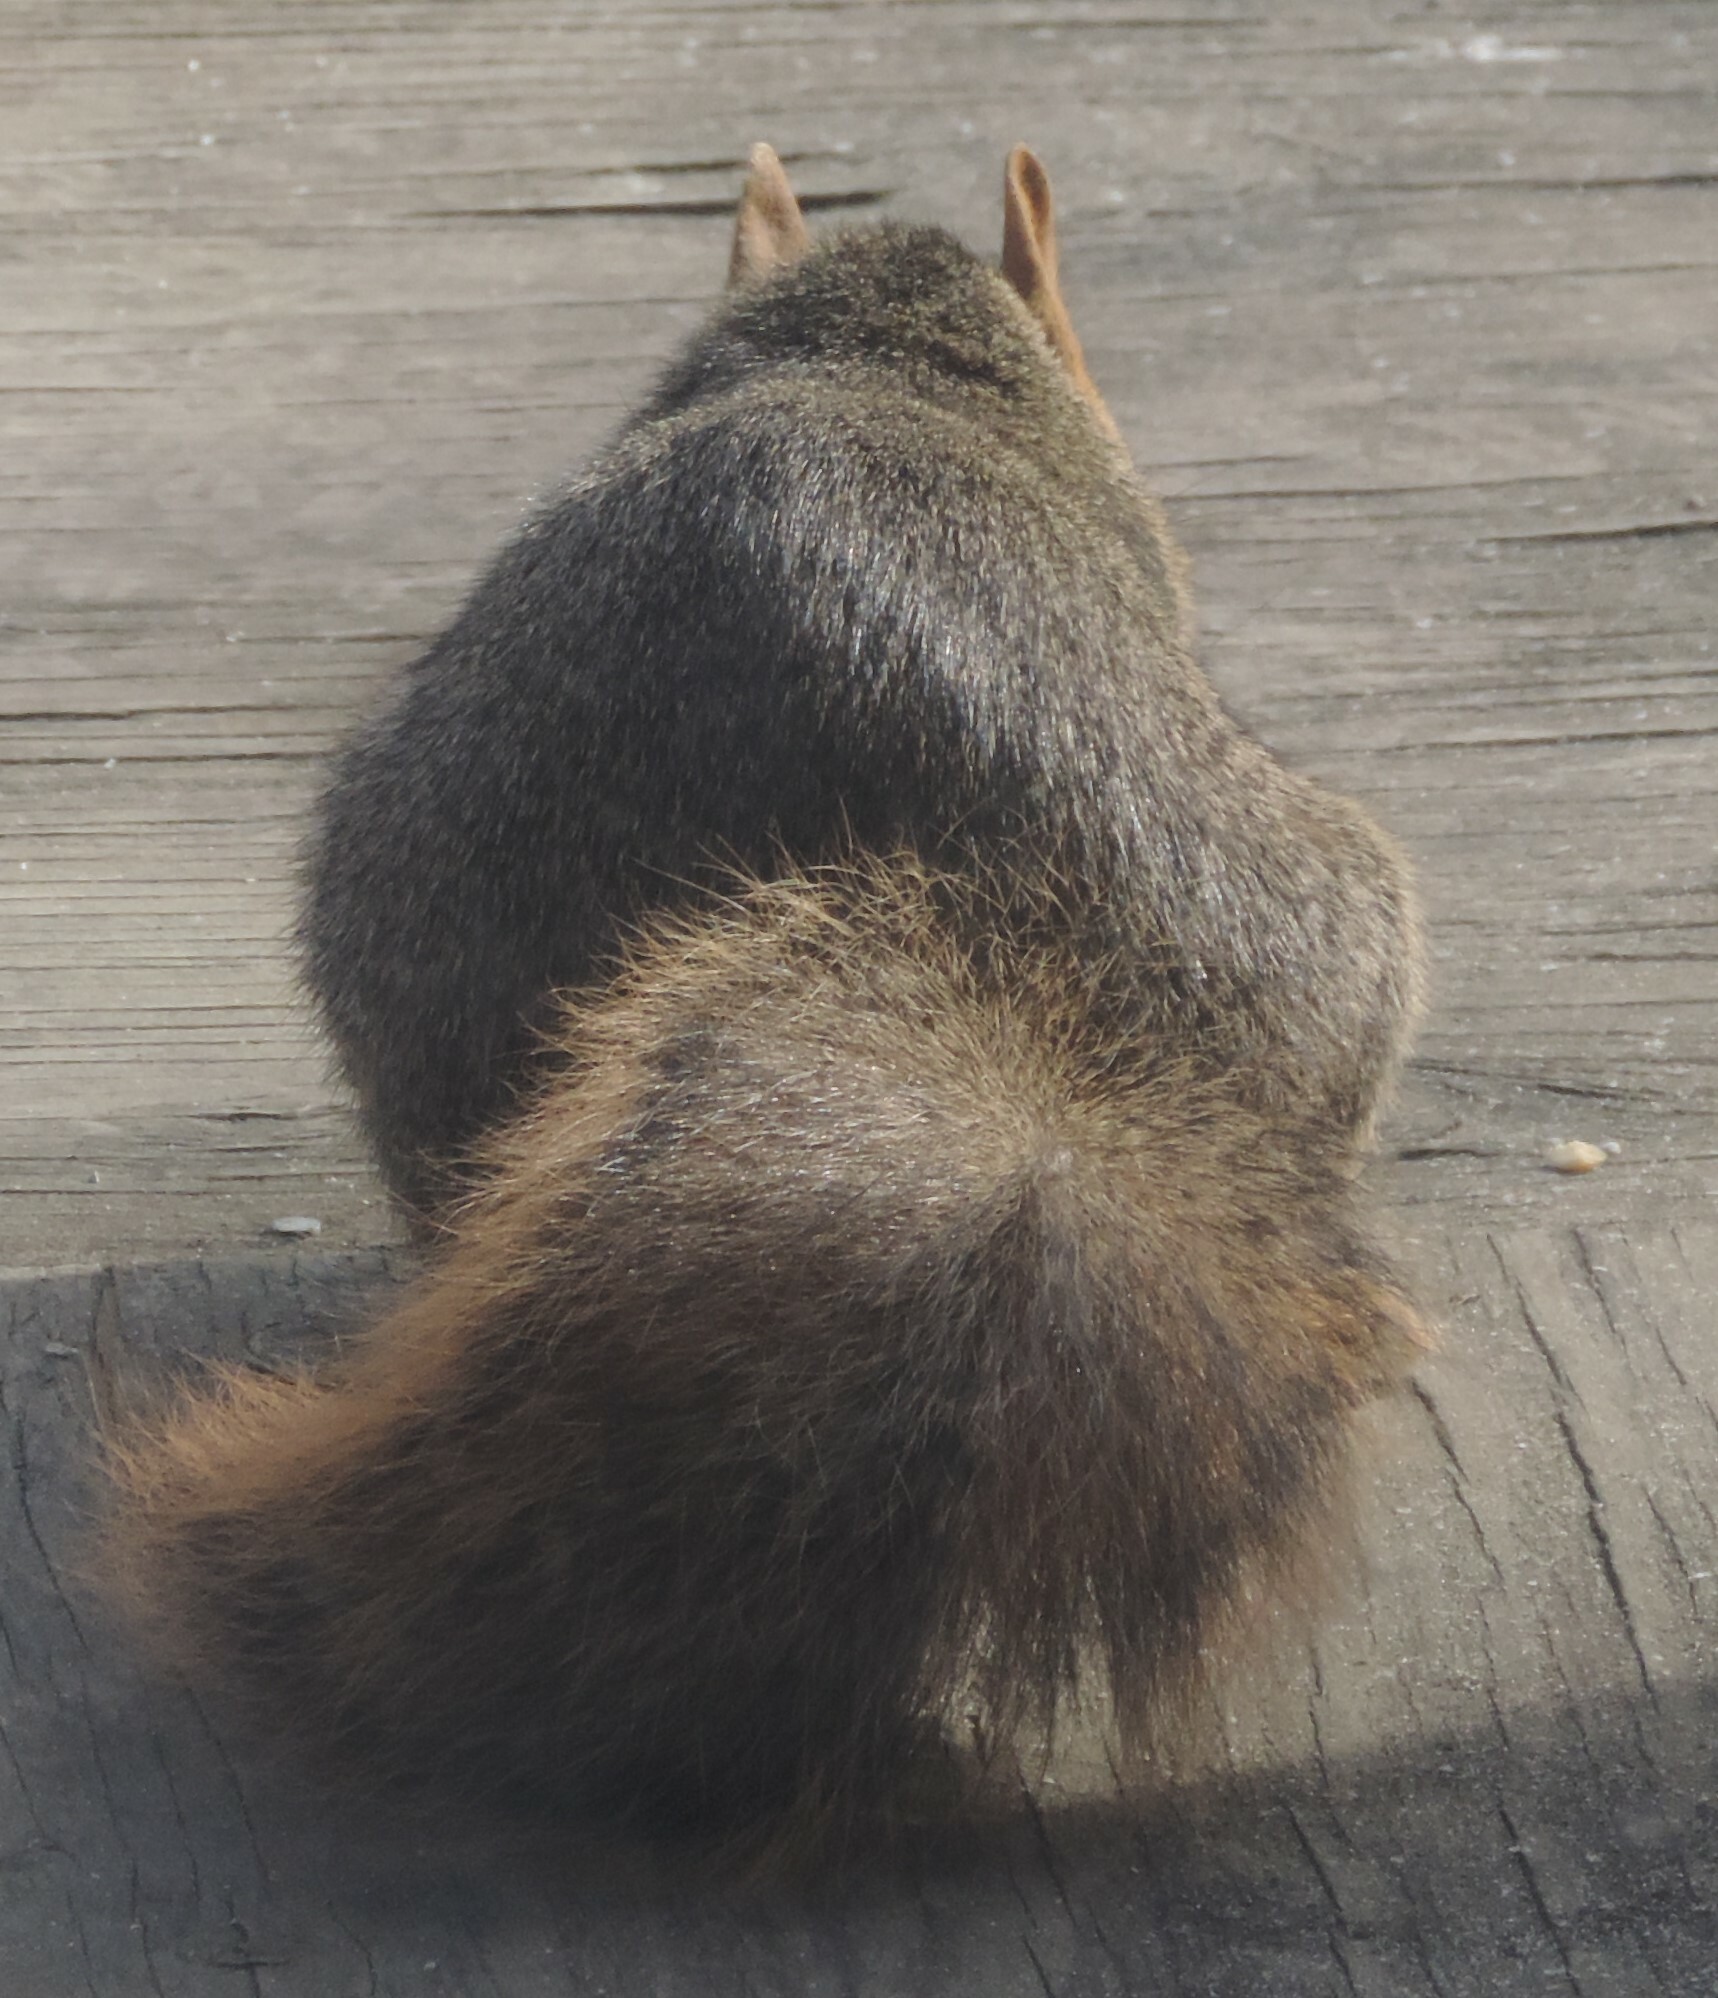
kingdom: Animalia
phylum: Chordata
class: Mammalia
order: Rodentia
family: Sciuridae
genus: Sciurus
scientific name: Sciurus niger
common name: Fox squirrel
